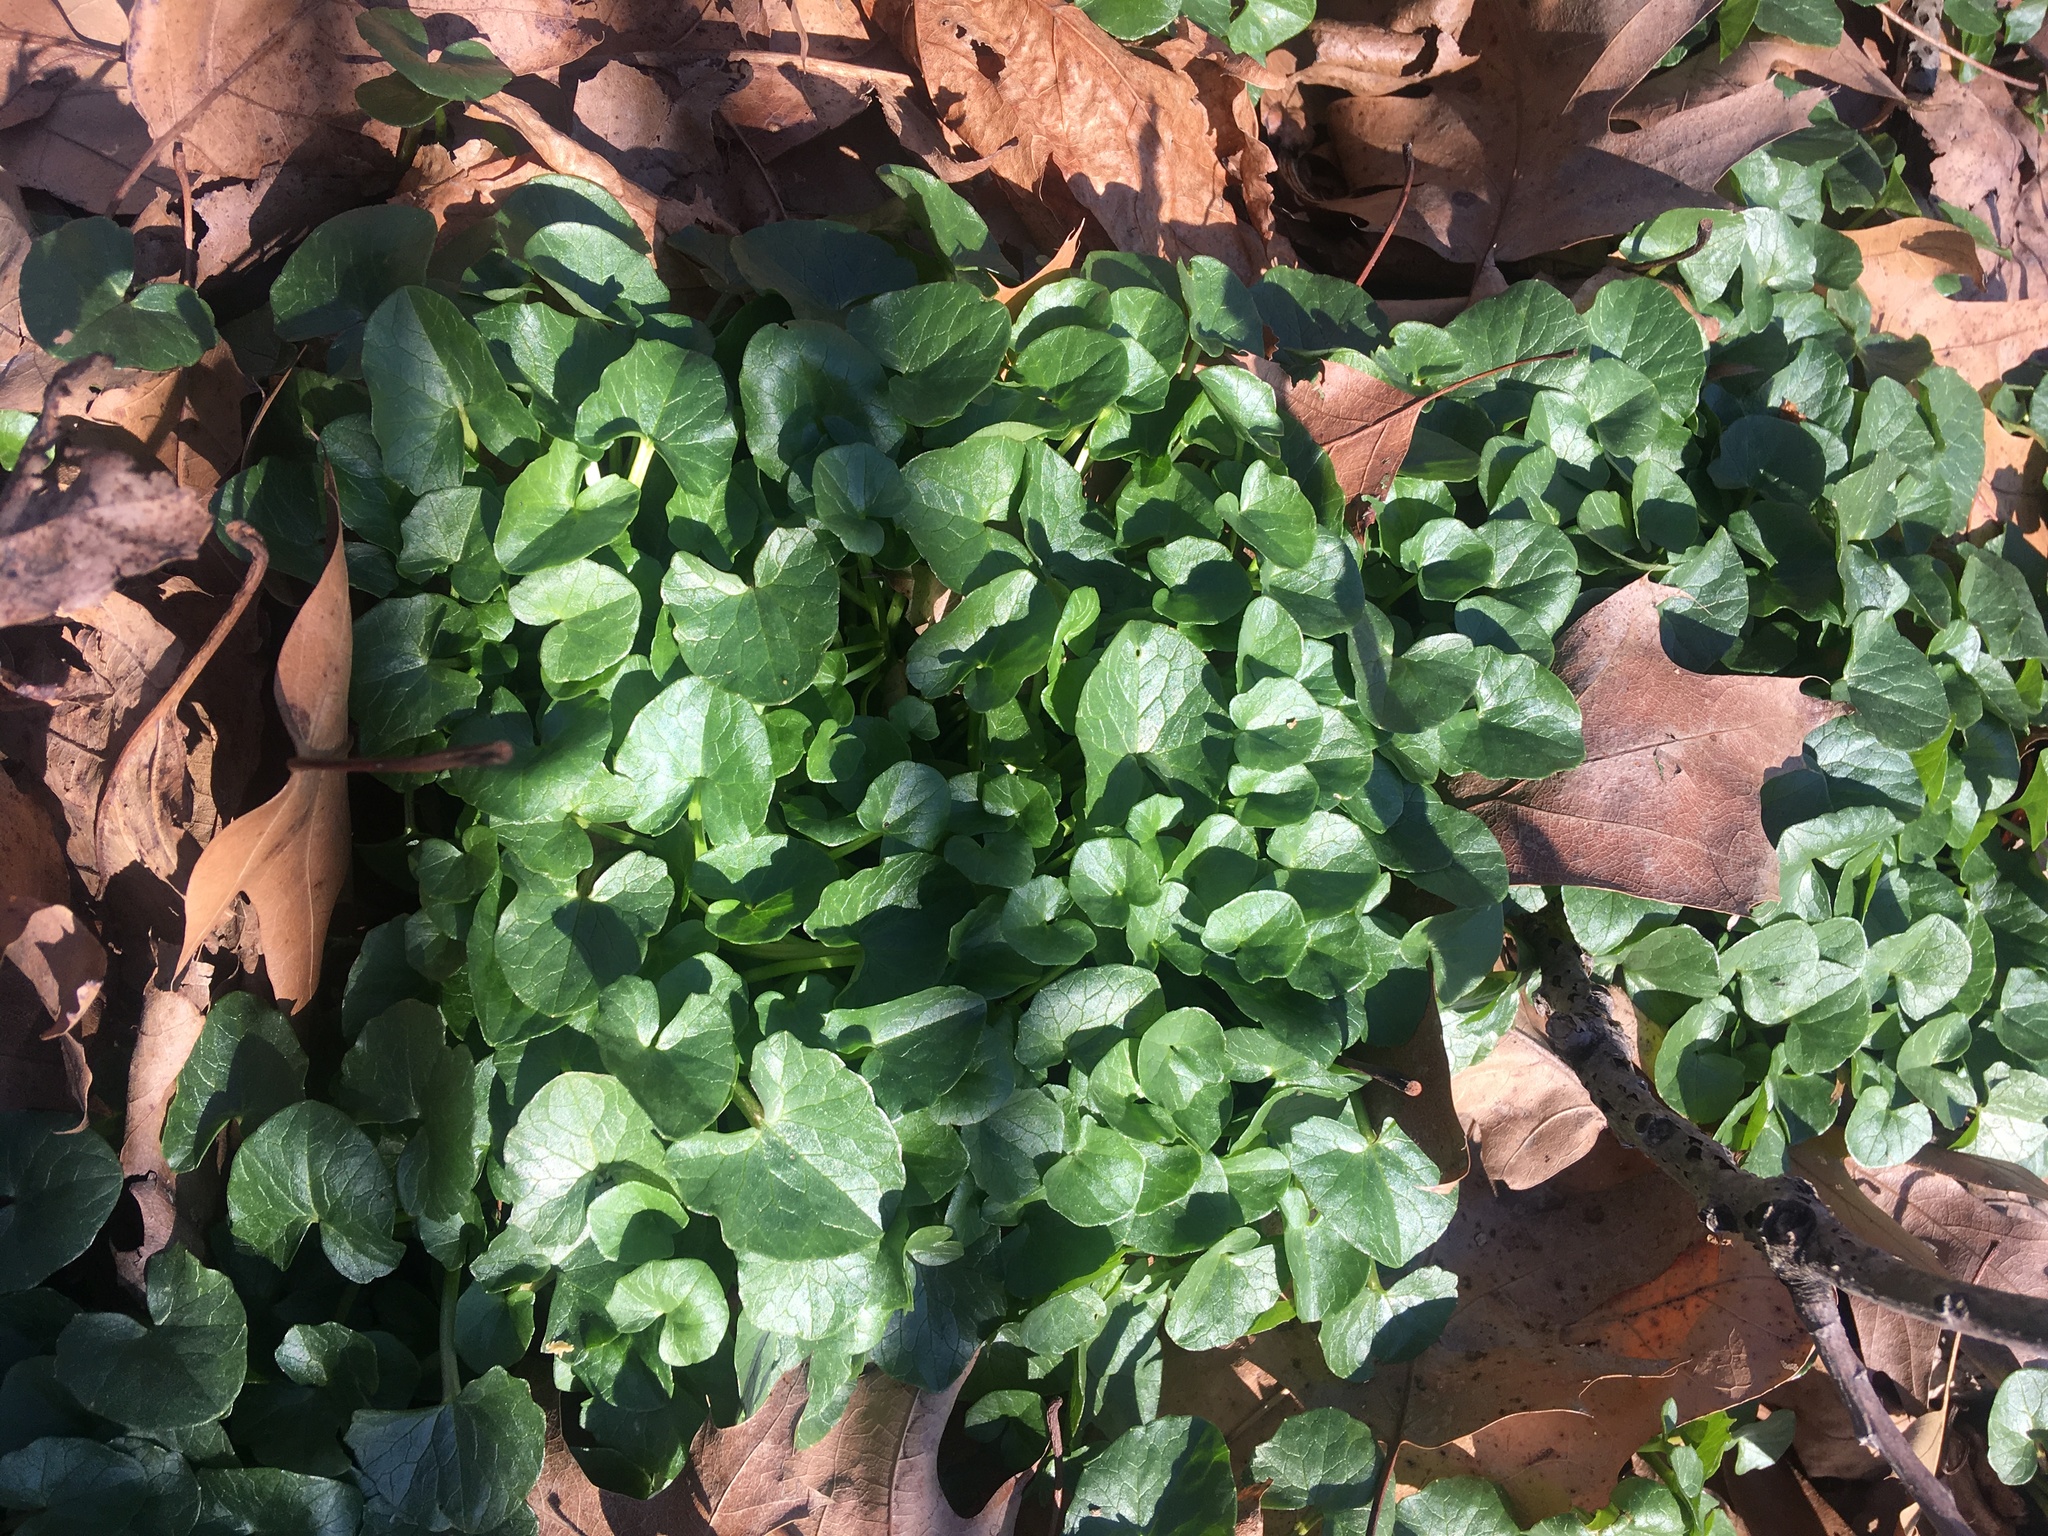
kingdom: Plantae
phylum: Tracheophyta
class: Magnoliopsida
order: Ranunculales
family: Ranunculaceae
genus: Ficaria
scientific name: Ficaria verna
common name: Lesser celandine
